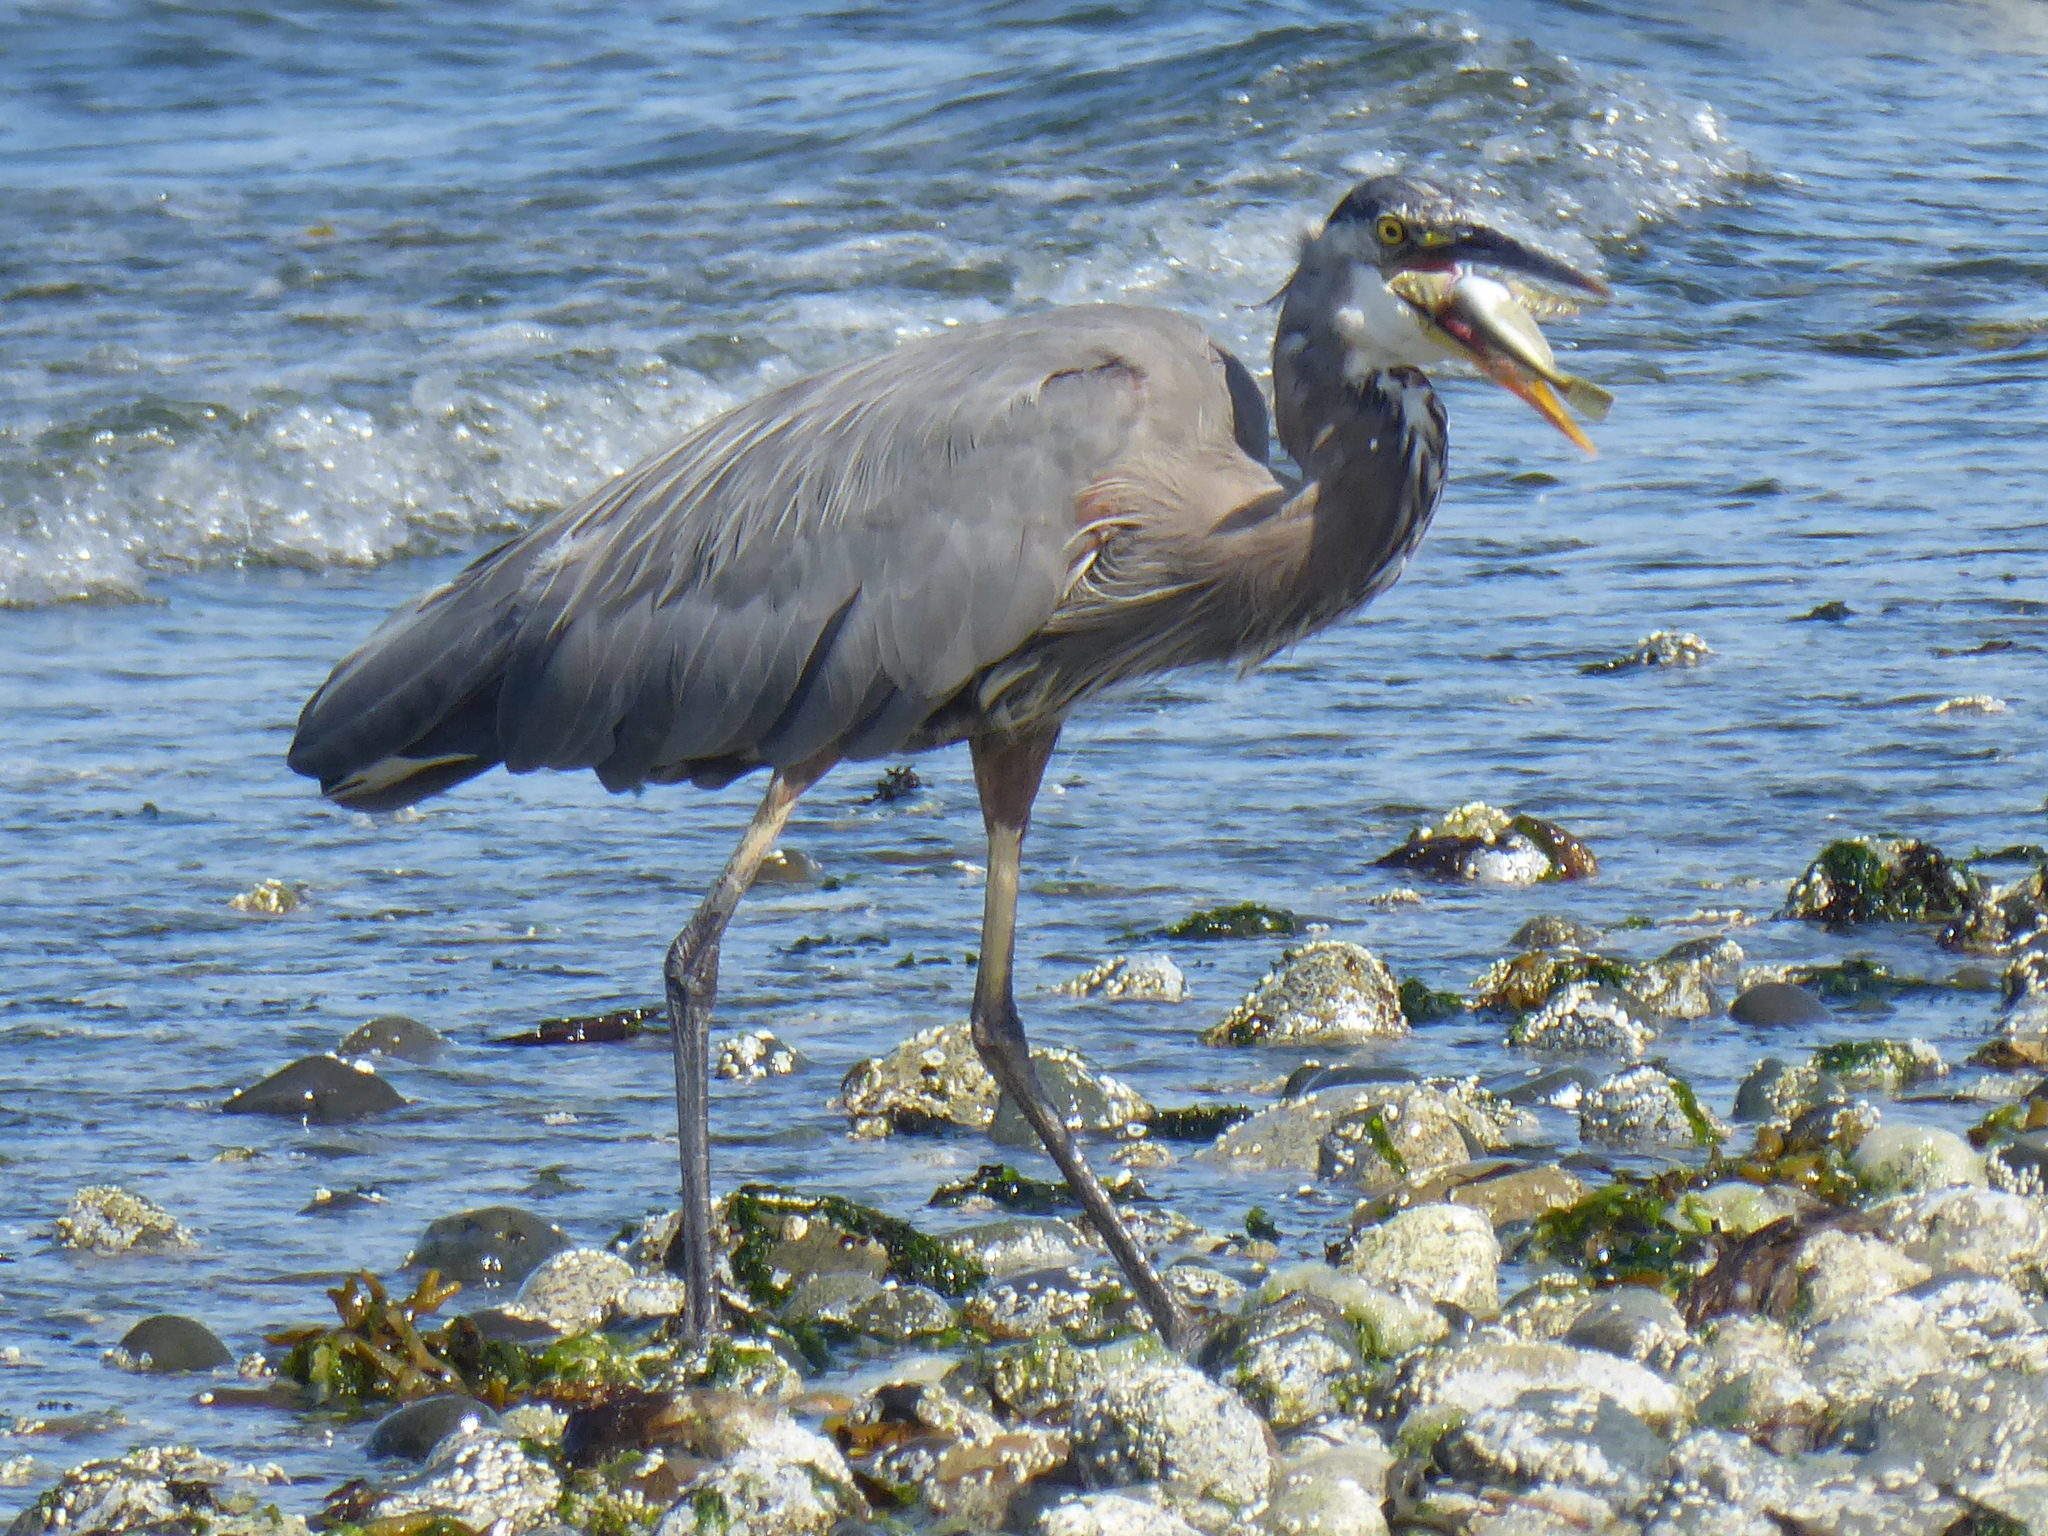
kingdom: Animalia
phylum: Chordata
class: Aves
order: Pelecaniformes
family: Ardeidae
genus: Ardea
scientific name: Ardea herodias
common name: Great blue heron
